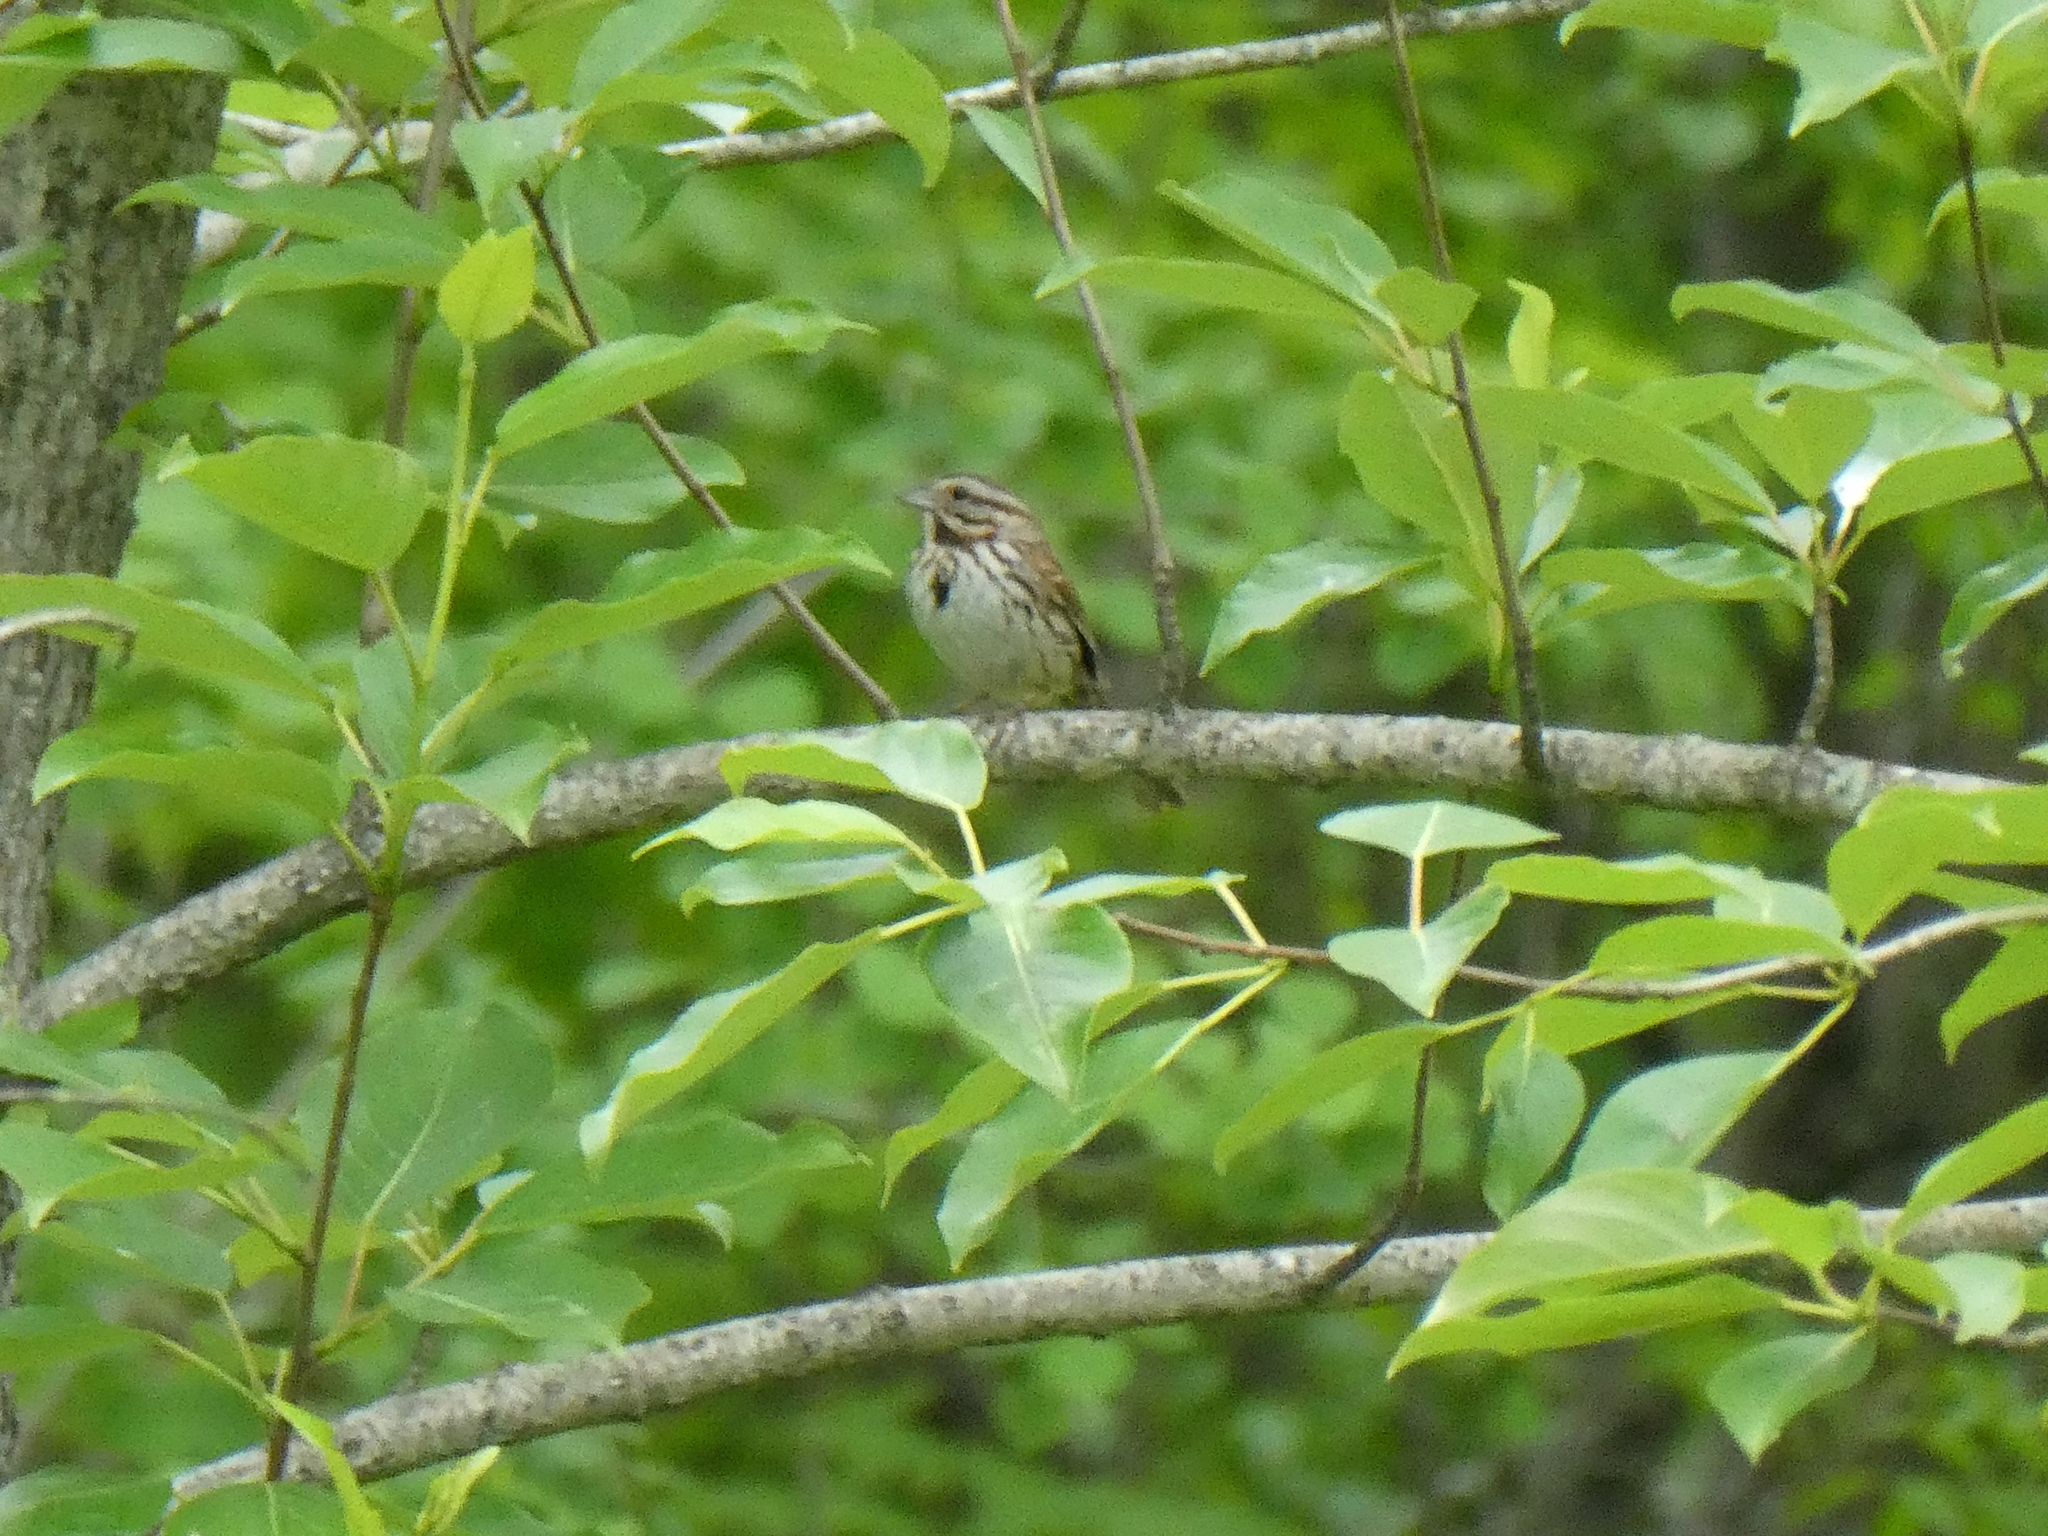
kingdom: Animalia
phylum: Chordata
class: Aves
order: Passeriformes
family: Passerellidae
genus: Melospiza
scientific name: Melospiza melodia
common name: Song sparrow
